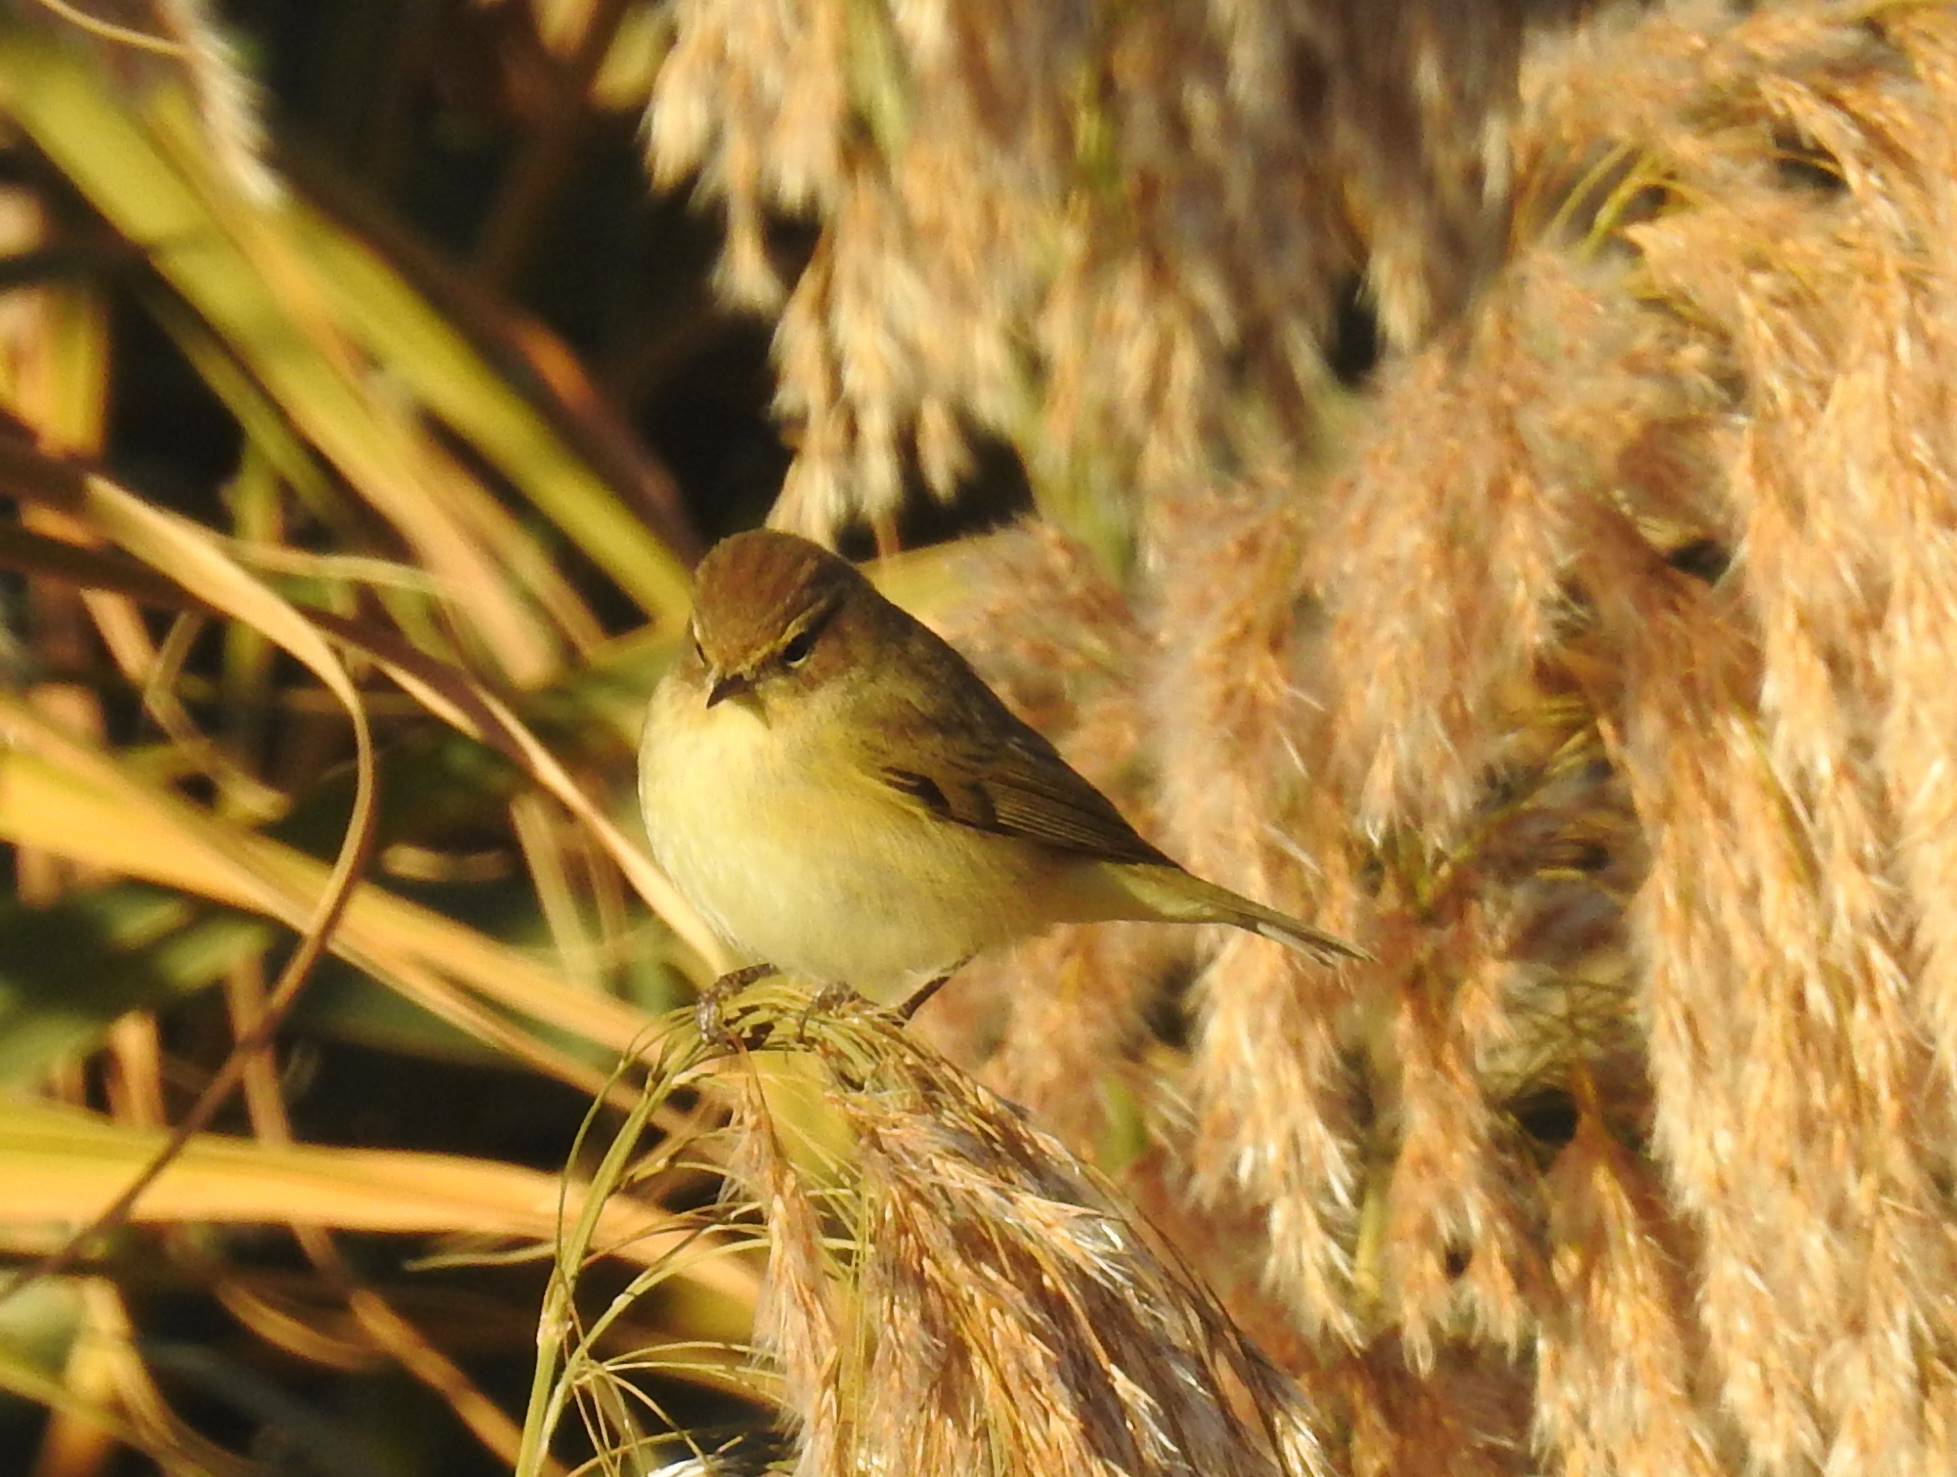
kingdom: Animalia
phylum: Chordata
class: Aves
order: Passeriformes
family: Phylloscopidae
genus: Phylloscopus
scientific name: Phylloscopus collybita
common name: Common chiffchaff
